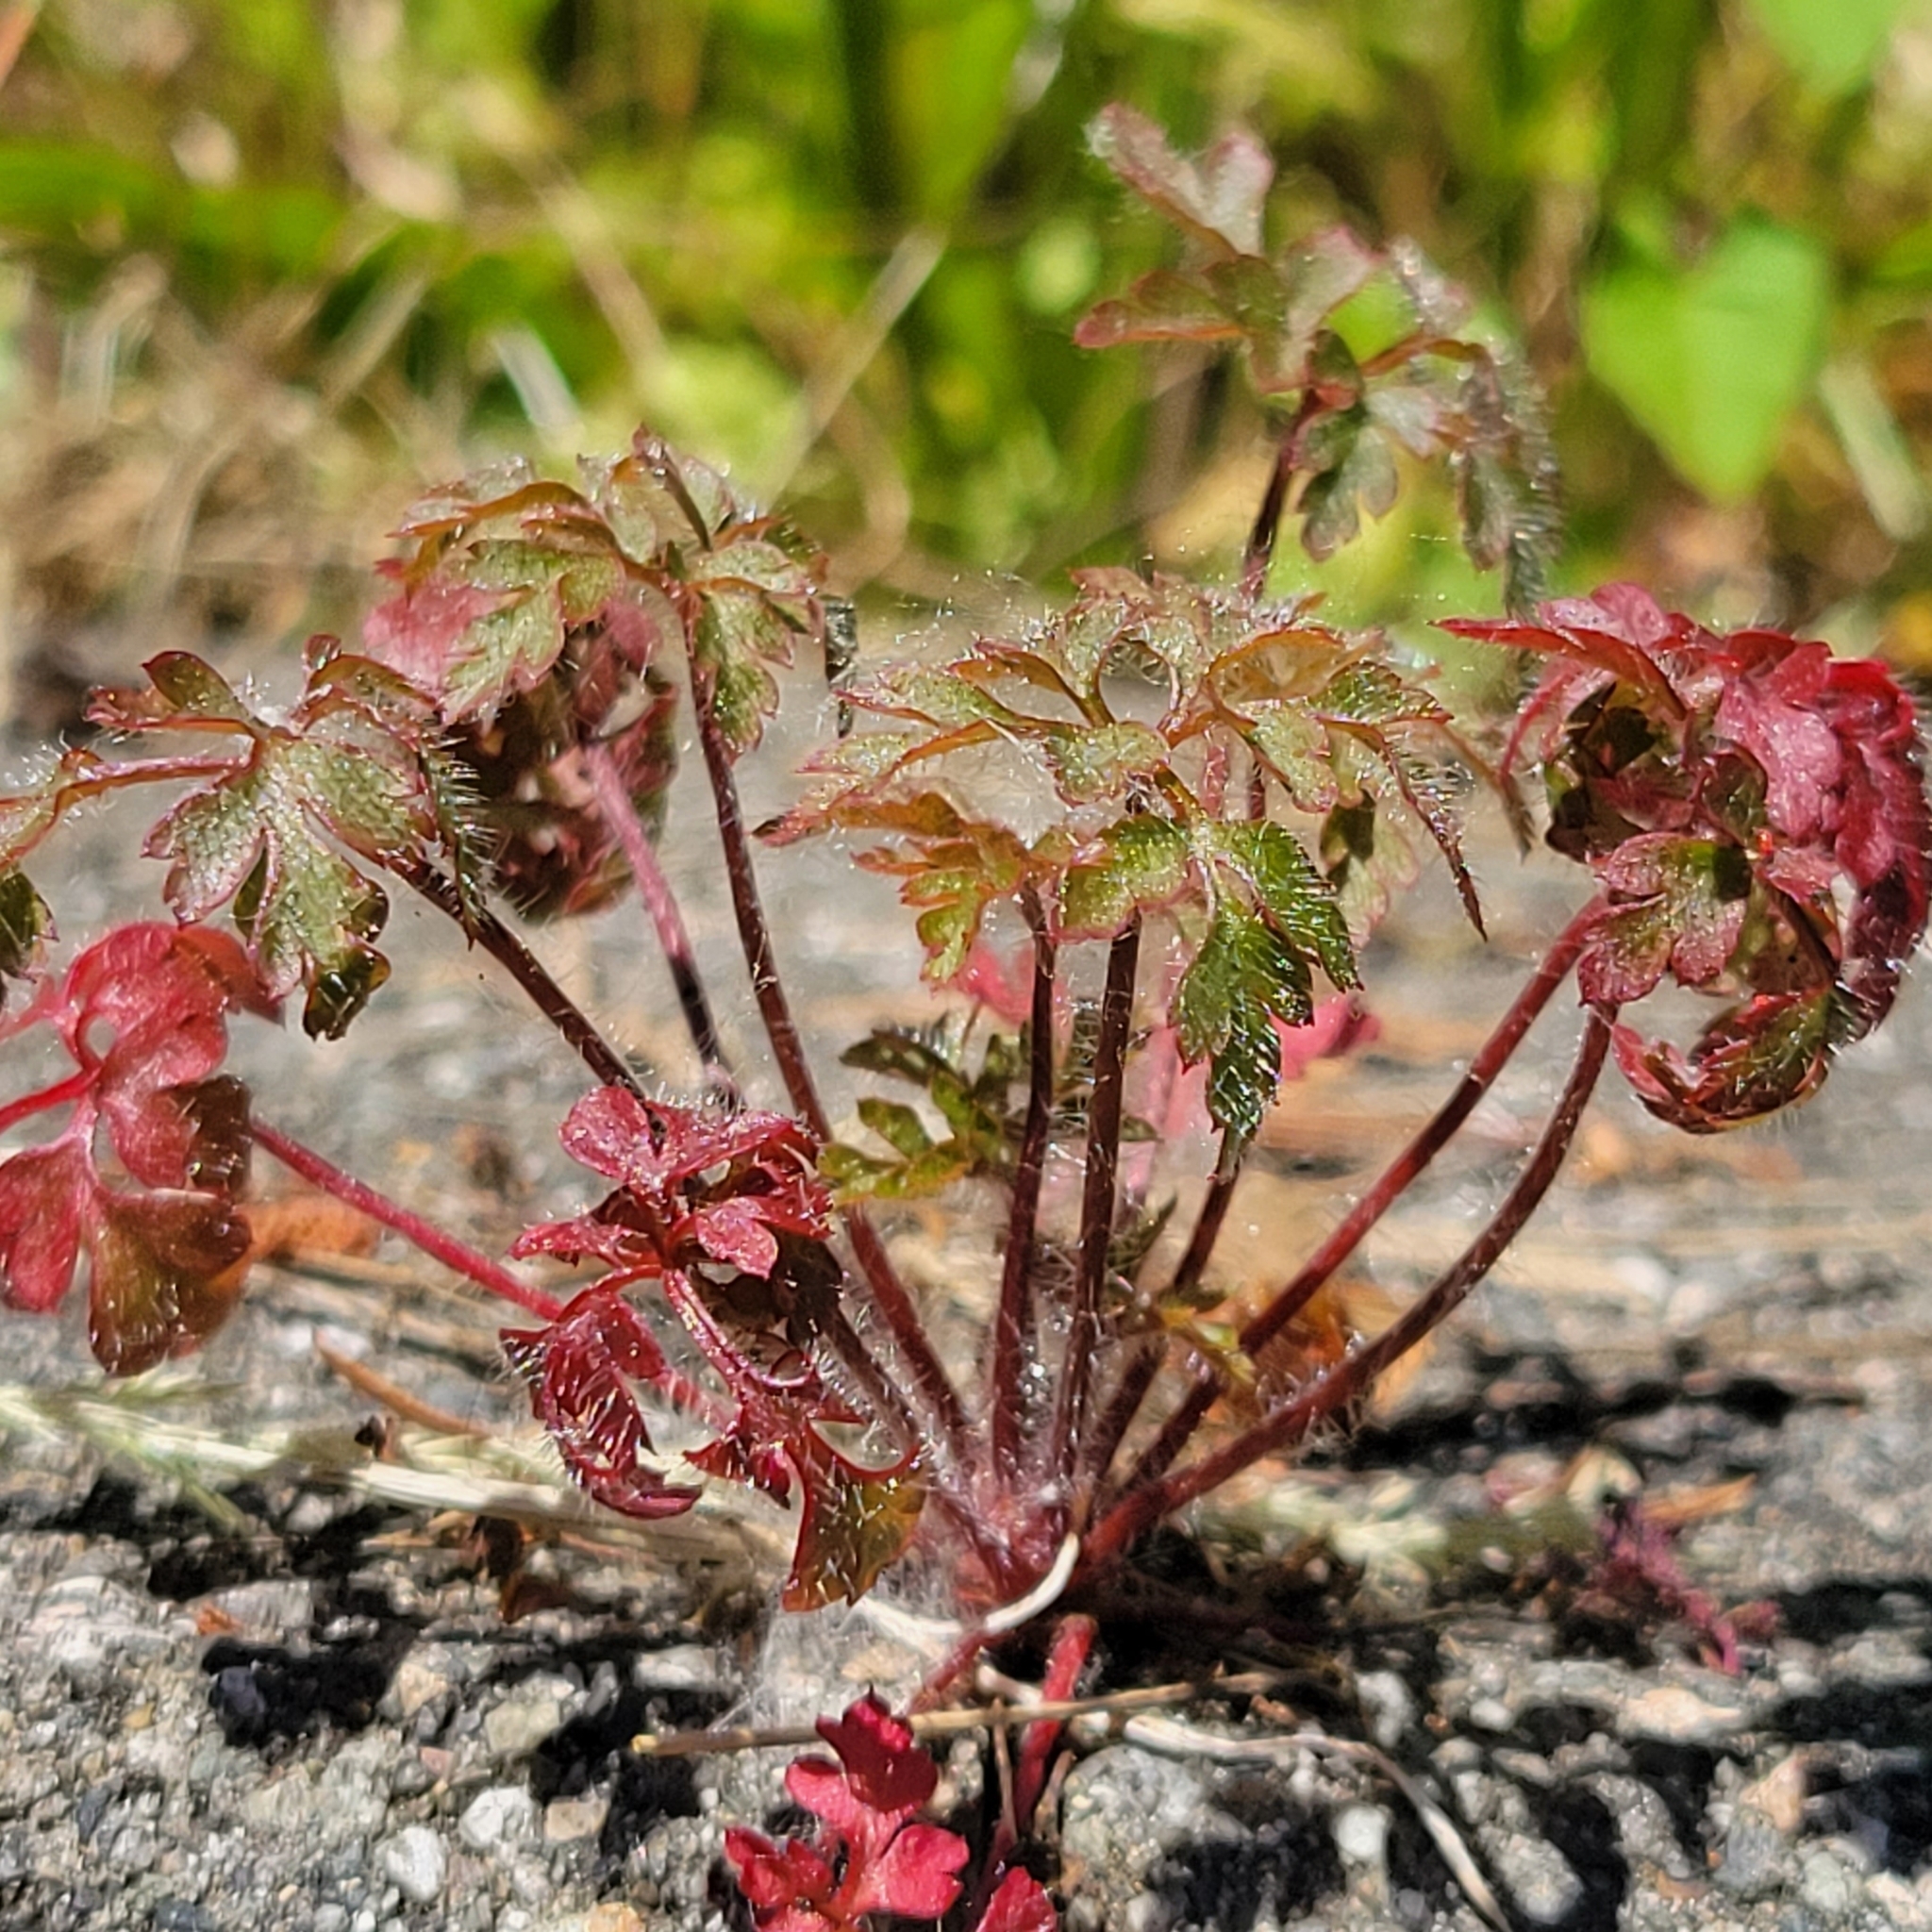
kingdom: Plantae
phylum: Tracheophyta
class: Magnoliopsida
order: Geraniales
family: Geraniaceae
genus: Geranium
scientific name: Geranium robertianum
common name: Herb-robert
